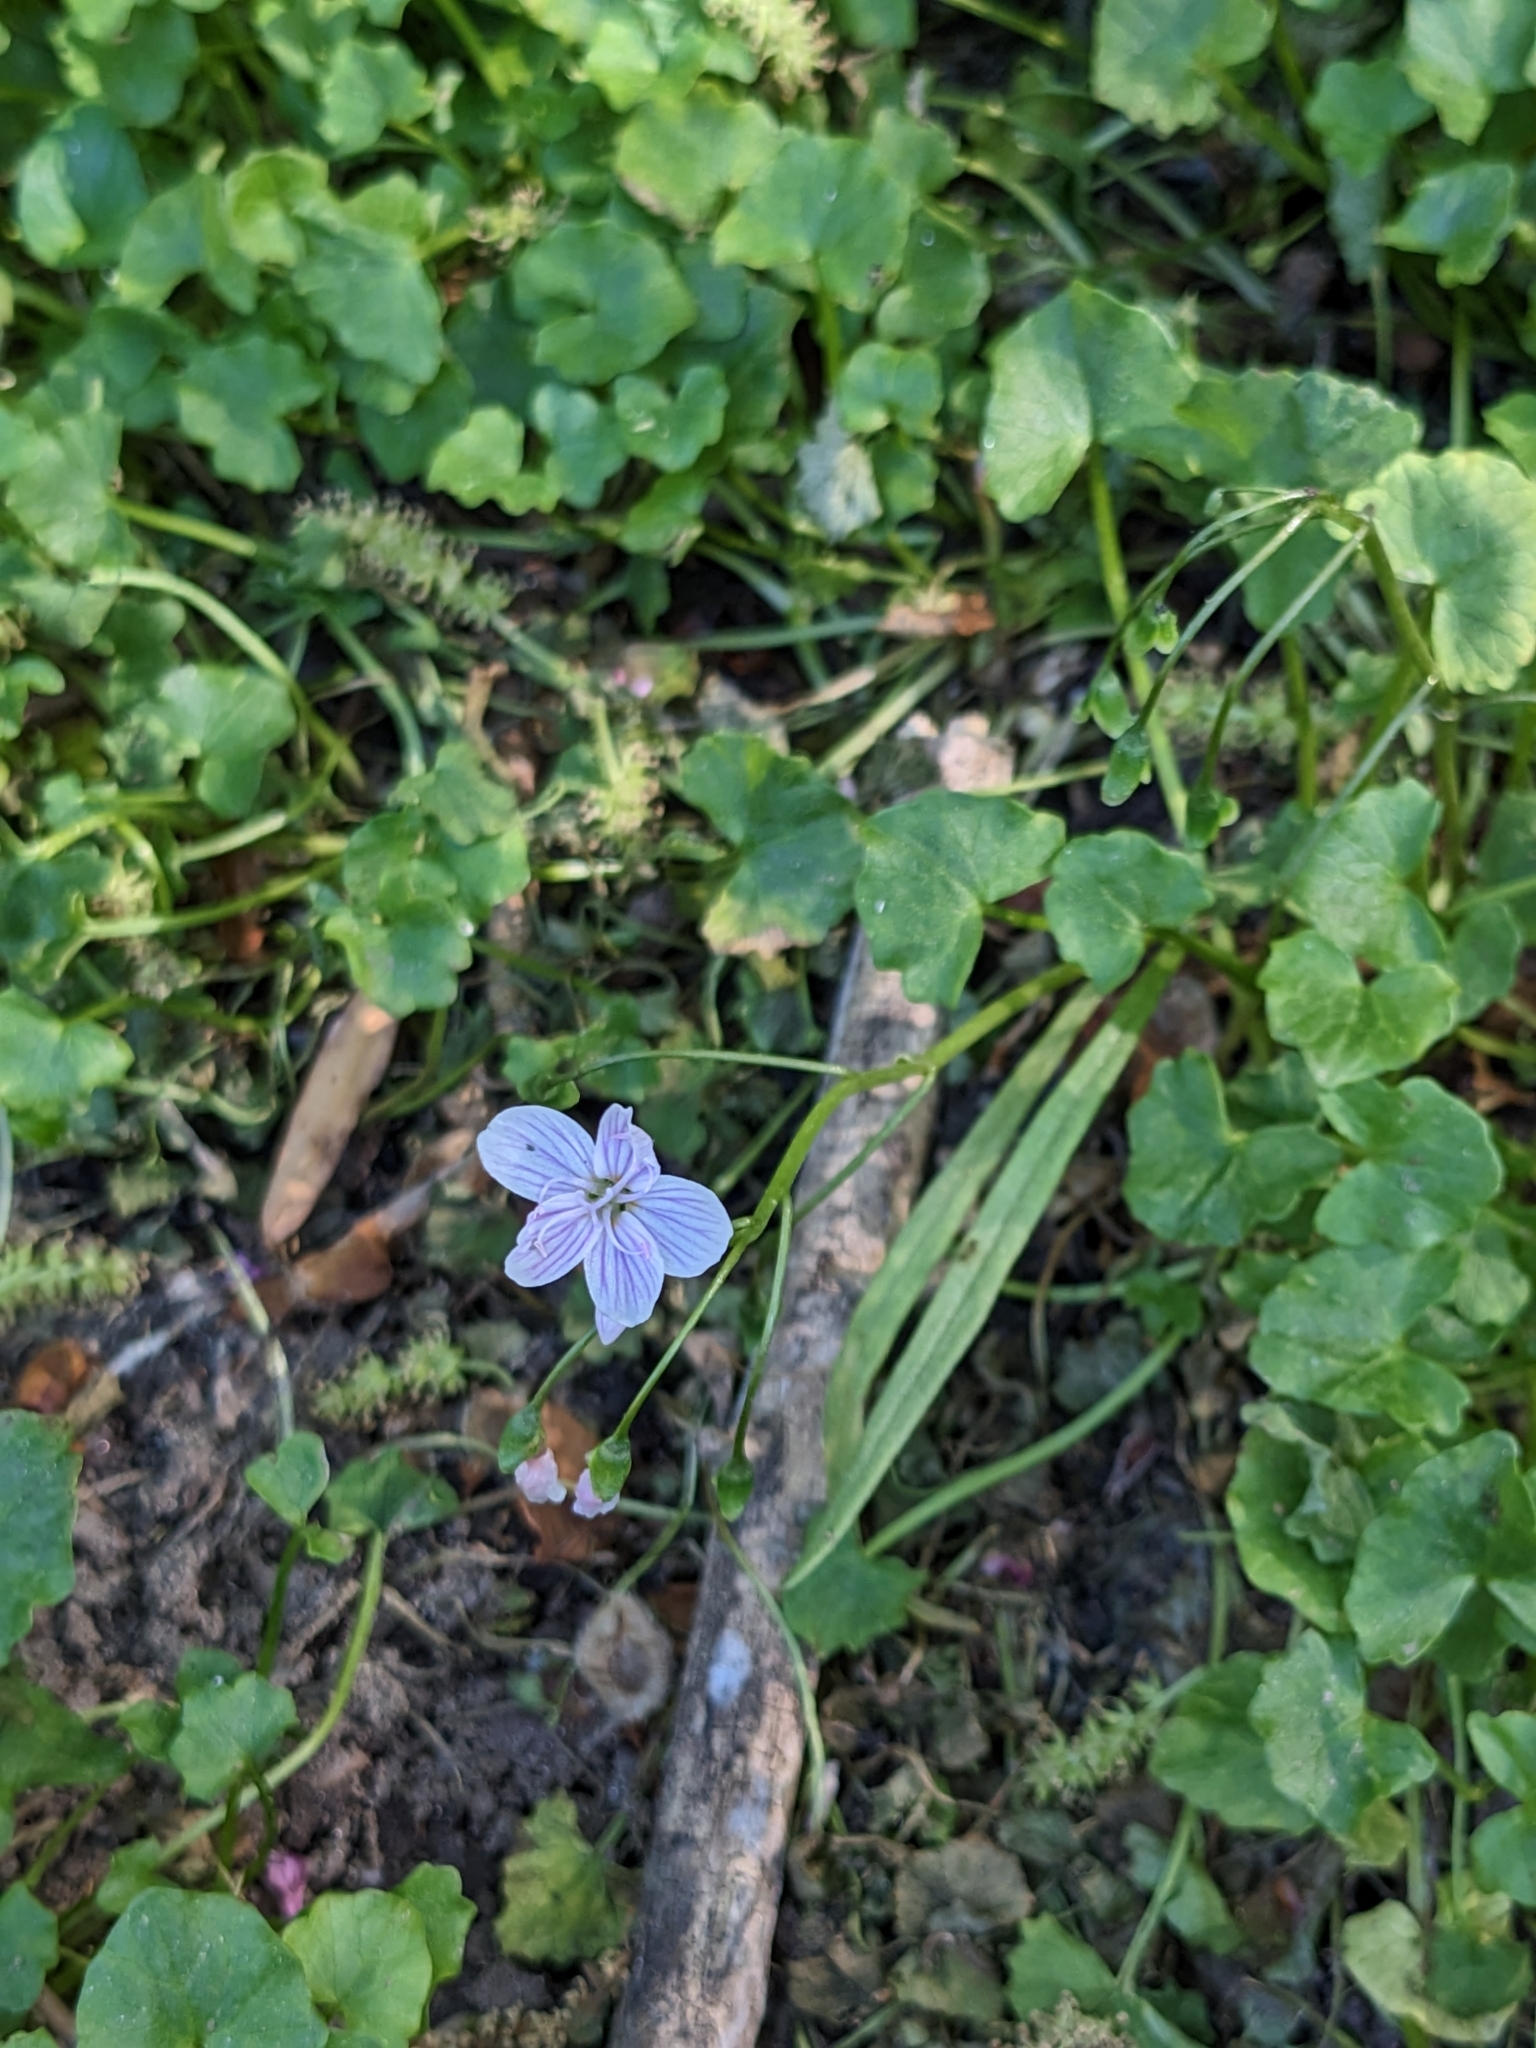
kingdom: Plantae
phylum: Tracheophyta
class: Magnoliopsida
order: Caryophyllales
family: Montiaceae
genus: Claytonia
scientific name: Claytonia virginica
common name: Virginia springbeauty
